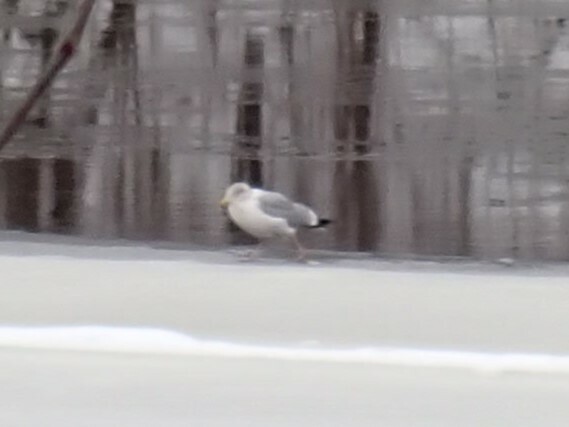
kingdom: Animalia
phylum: Chordata
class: Aves
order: Charadriiformes
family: Laridae
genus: Larus
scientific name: Larus argentatus
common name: Herring gull
